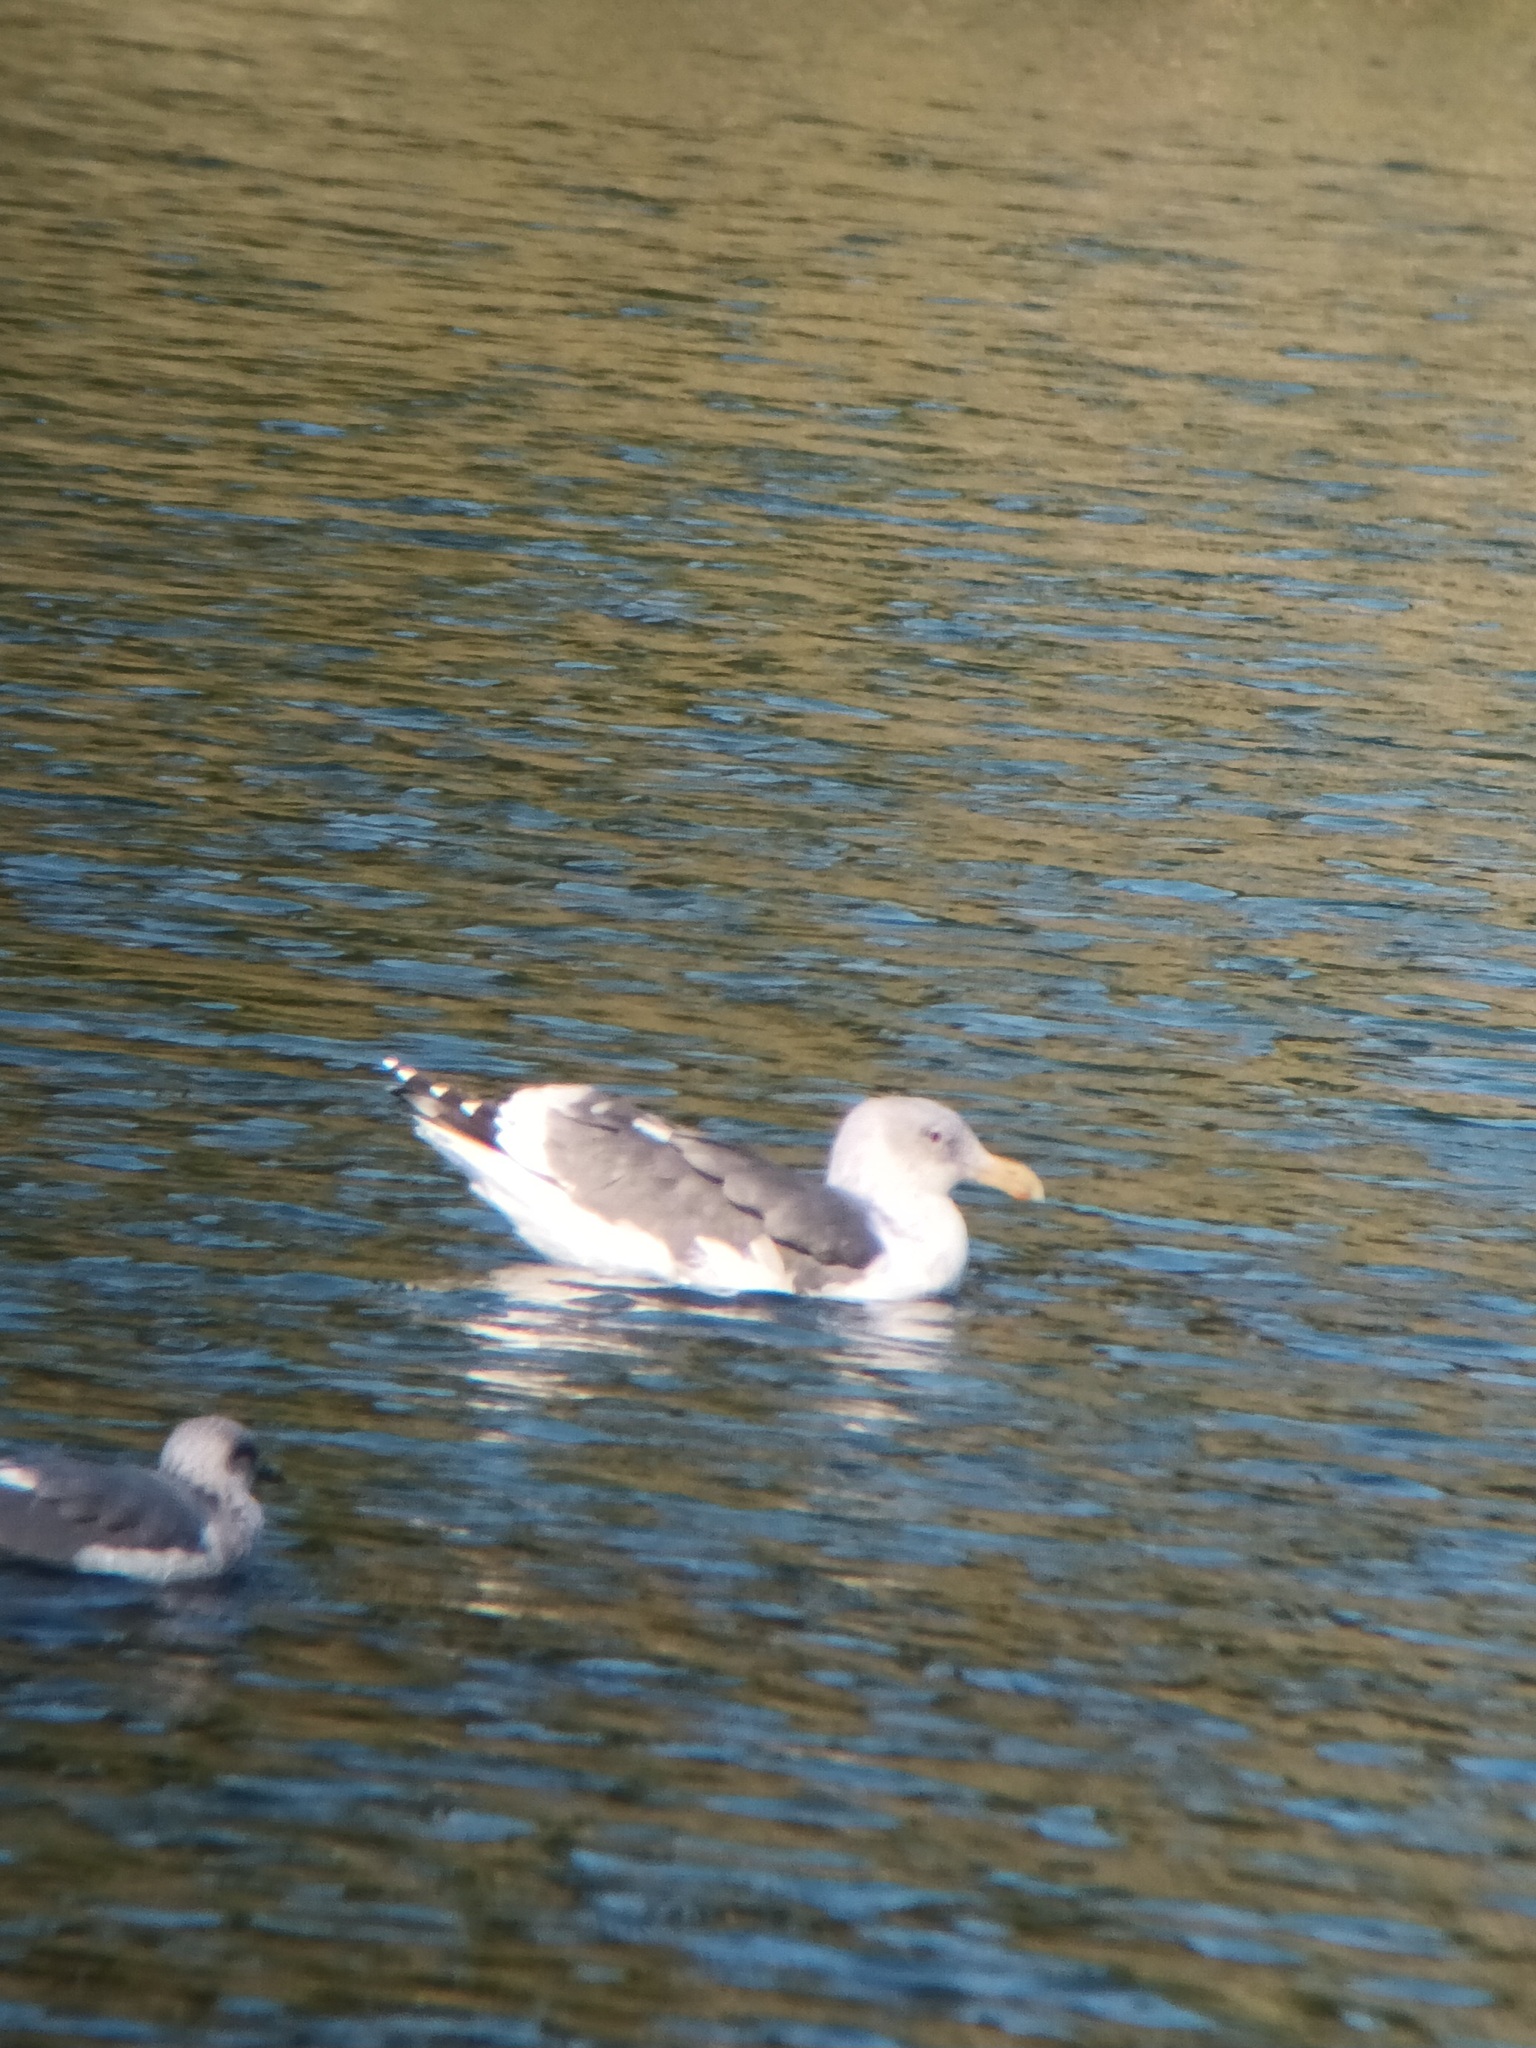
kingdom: Animalia
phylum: Chordata
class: Aves
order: Charadriiformes
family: Laridae
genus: Larus
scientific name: Larus occidentalis
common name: Western gull
